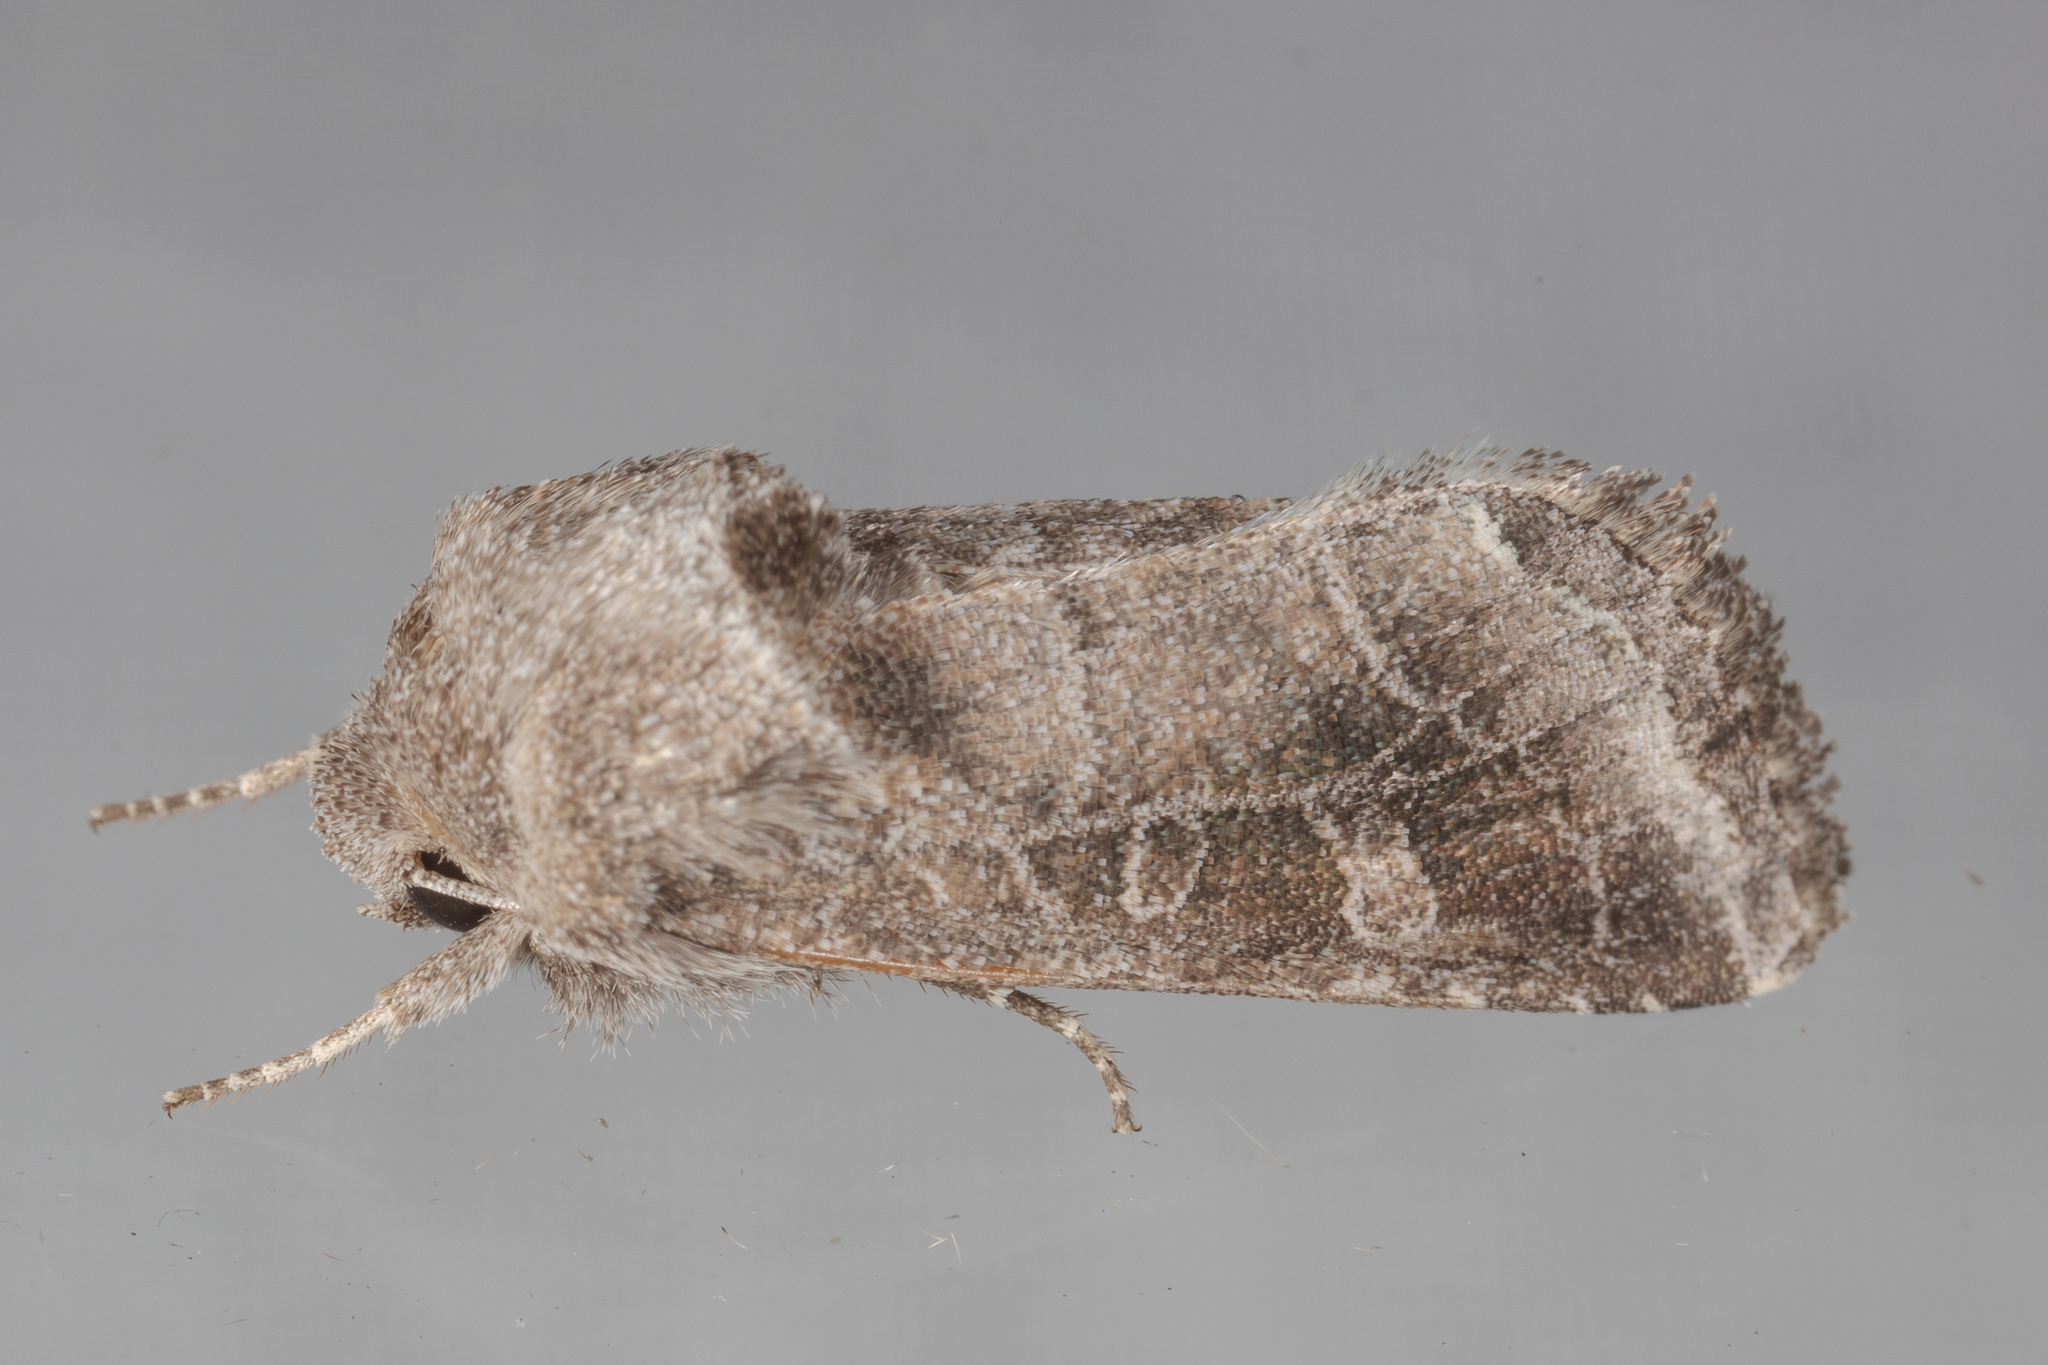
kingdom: Animalia
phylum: Arthropoda
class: Insecta
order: Lepidoptera
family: Noctuidae
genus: Lacinipolia
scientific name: Lacinipolia erecta
